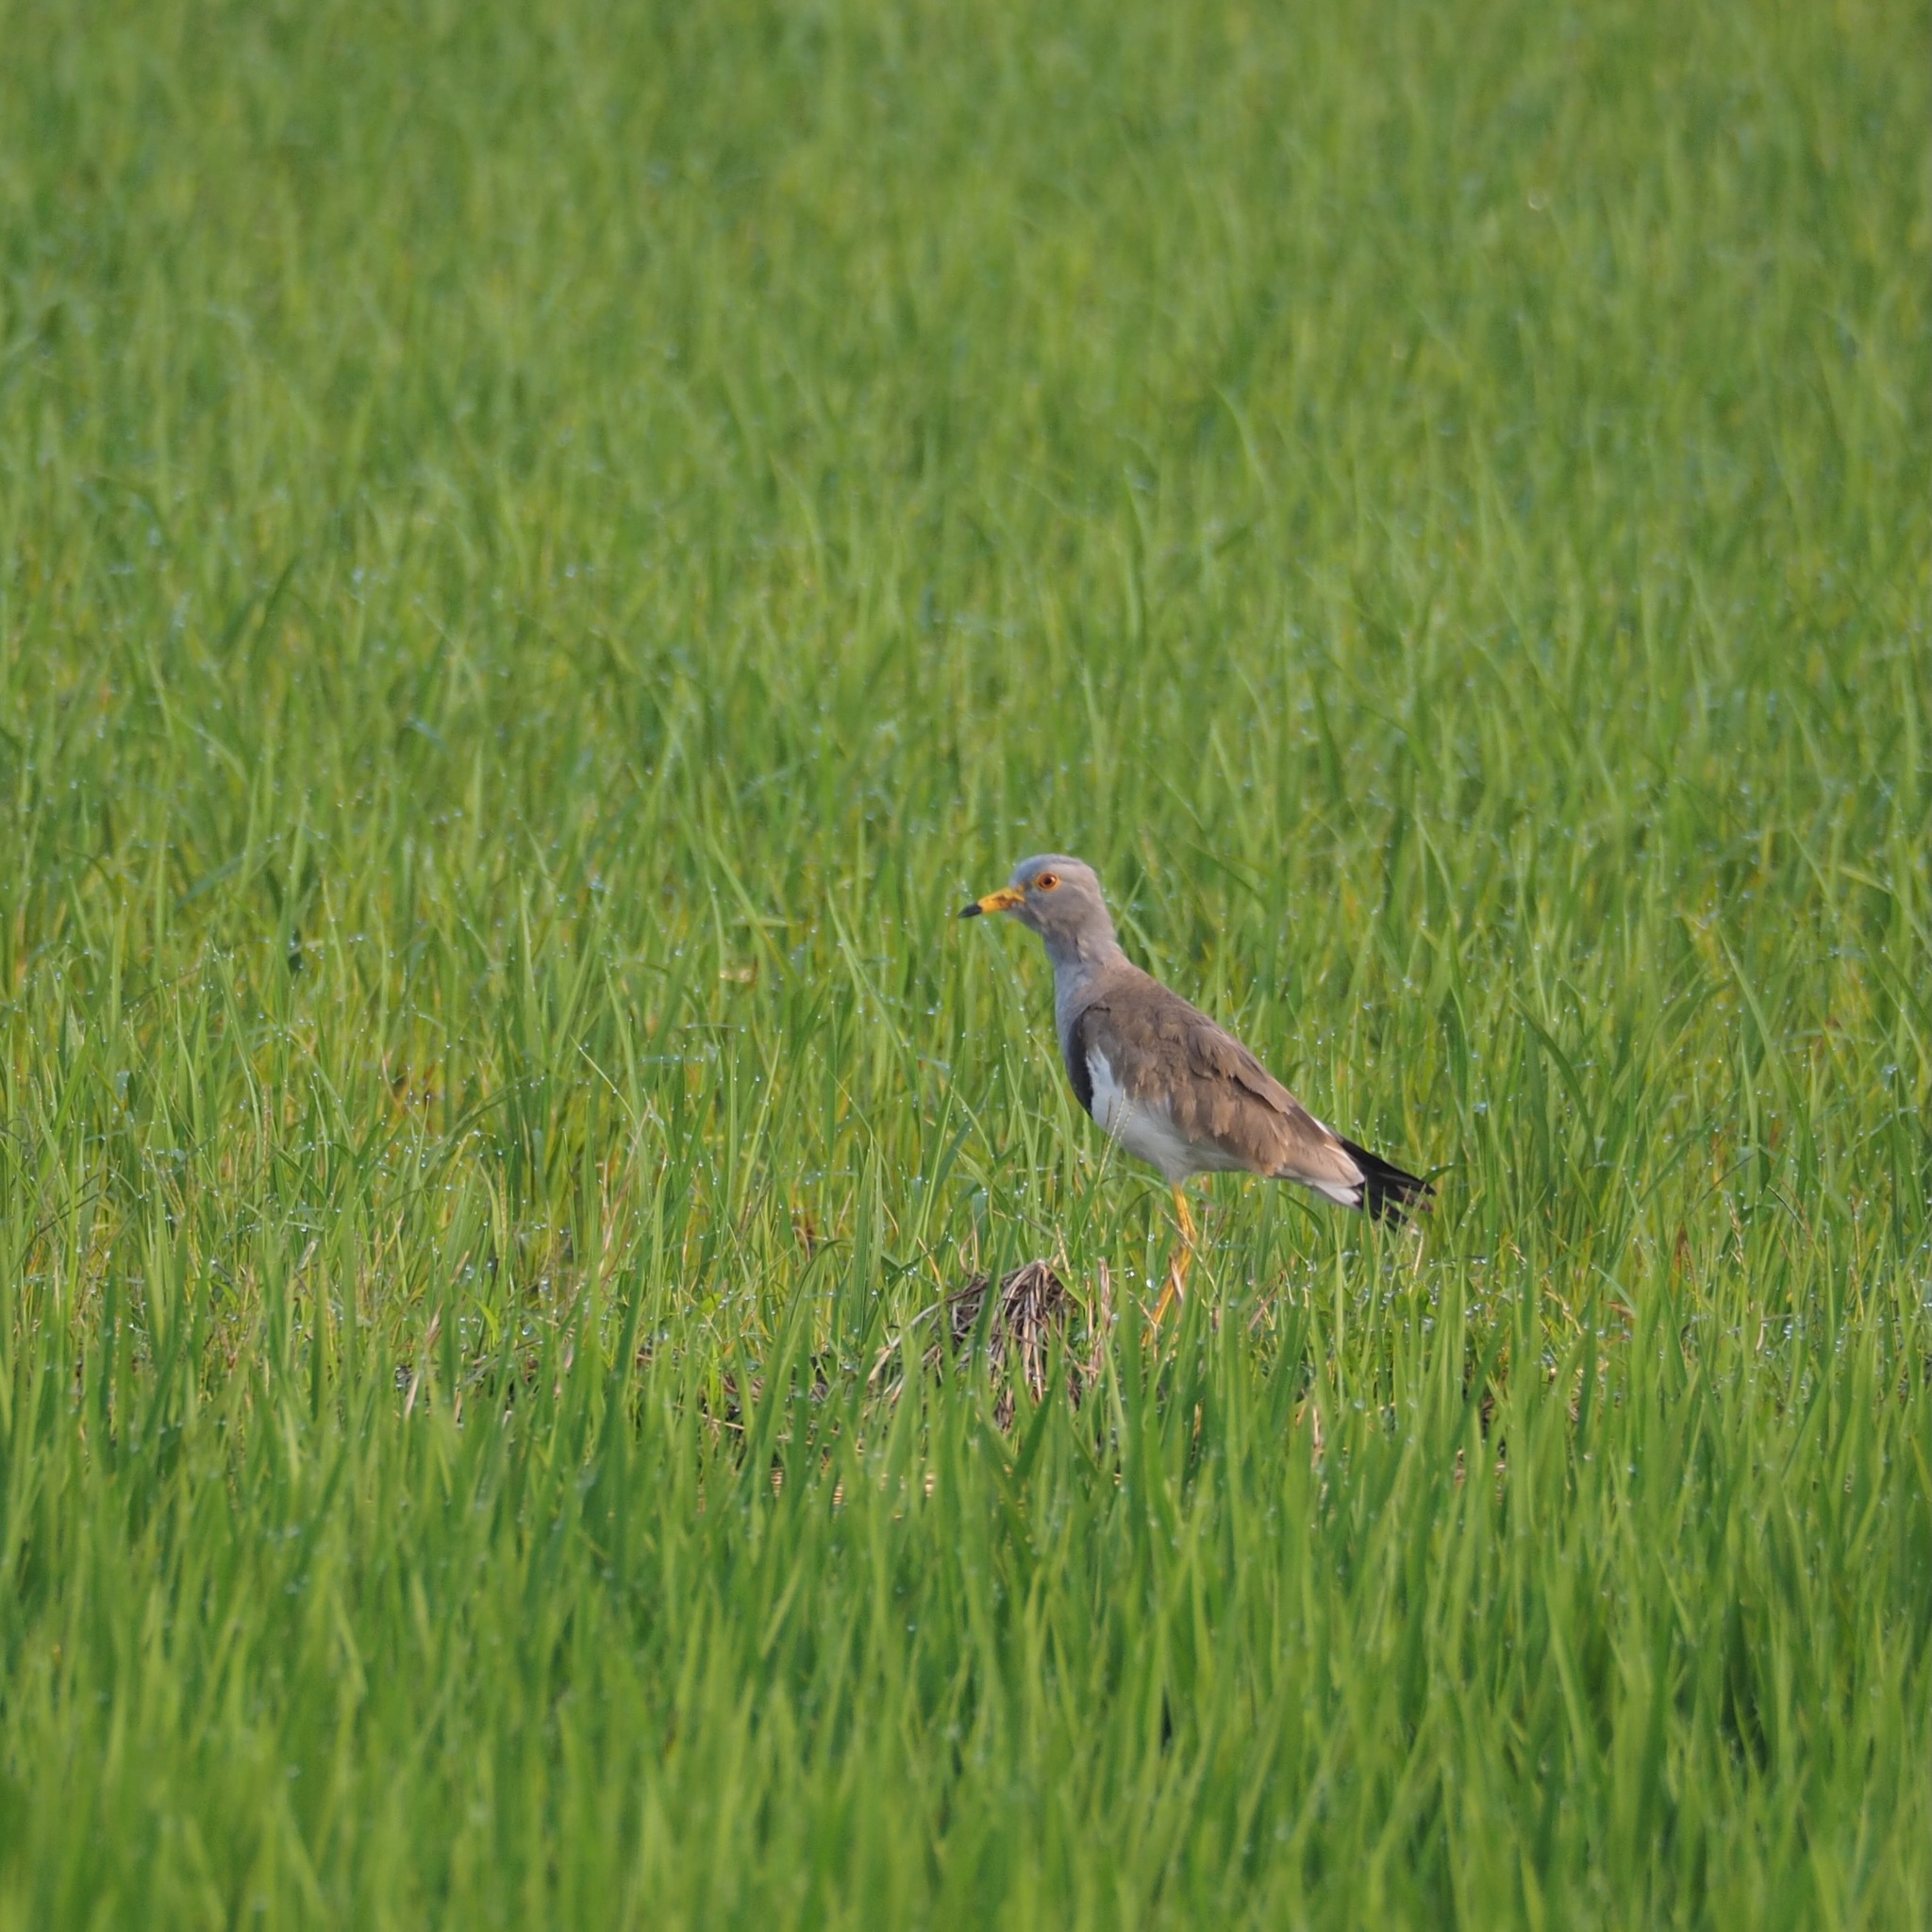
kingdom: Animalia
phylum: Chordata
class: Aves
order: Charadriiformes
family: Charadriidae
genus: Vanellus
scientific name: Vanellus cinereus
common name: Grey-headed lapwing
